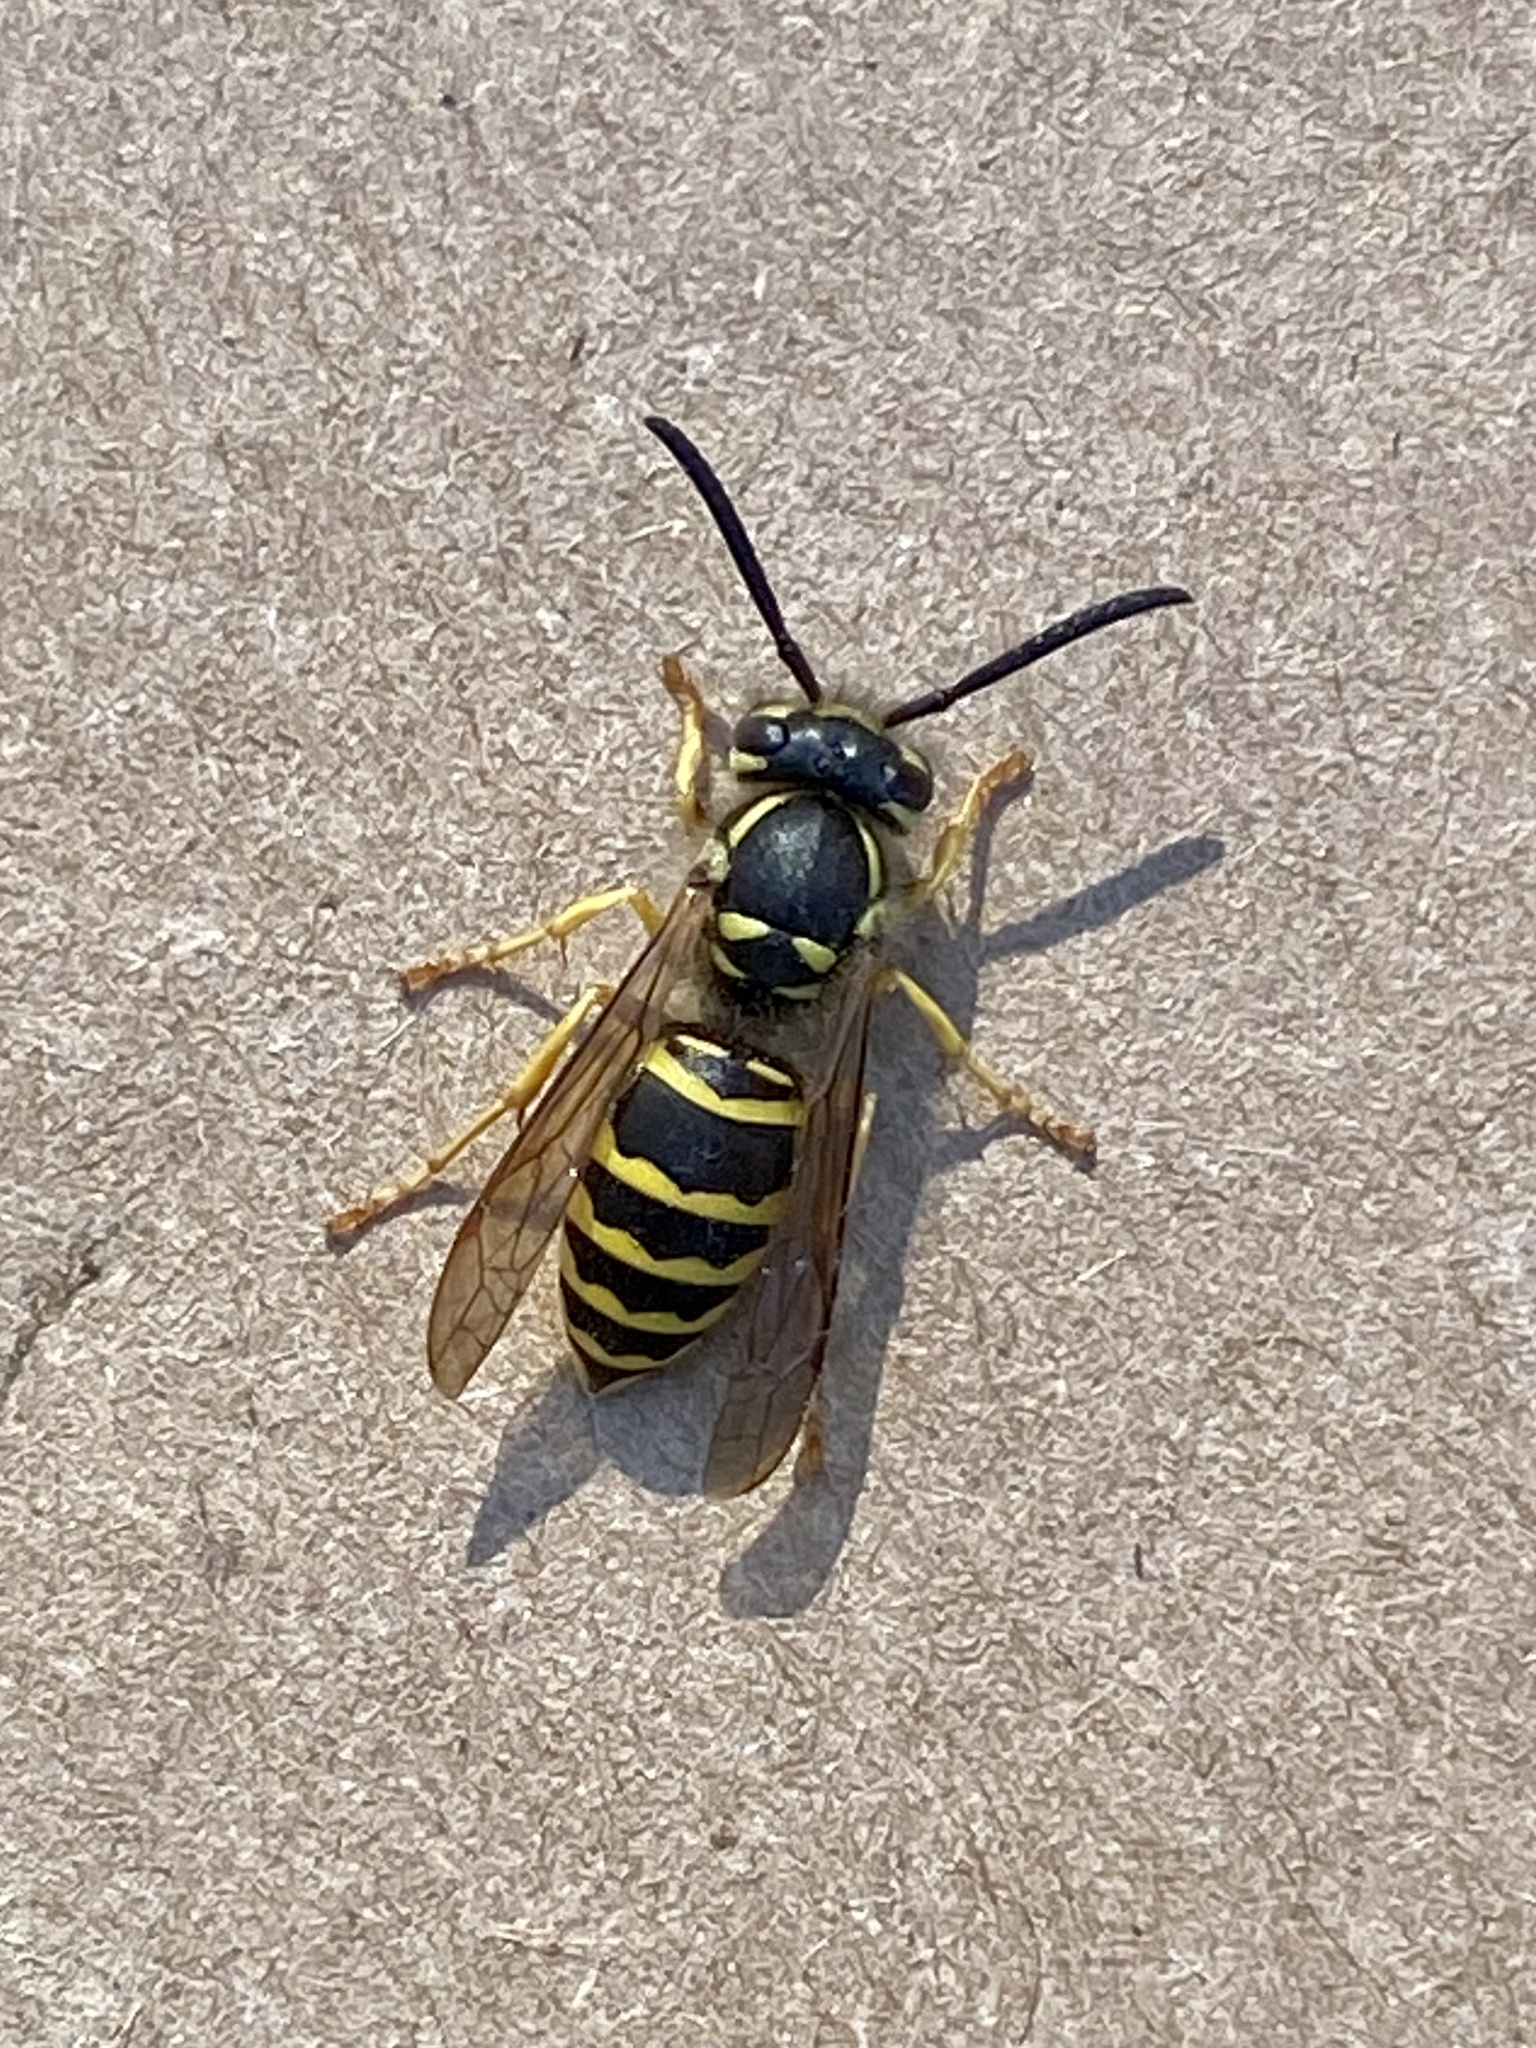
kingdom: Animalia
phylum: Arthropoda
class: Insecta
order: Hymenoptera
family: Vespidae
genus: Vespula
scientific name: Vespula maculifrons
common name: Eastern yellowjacket
